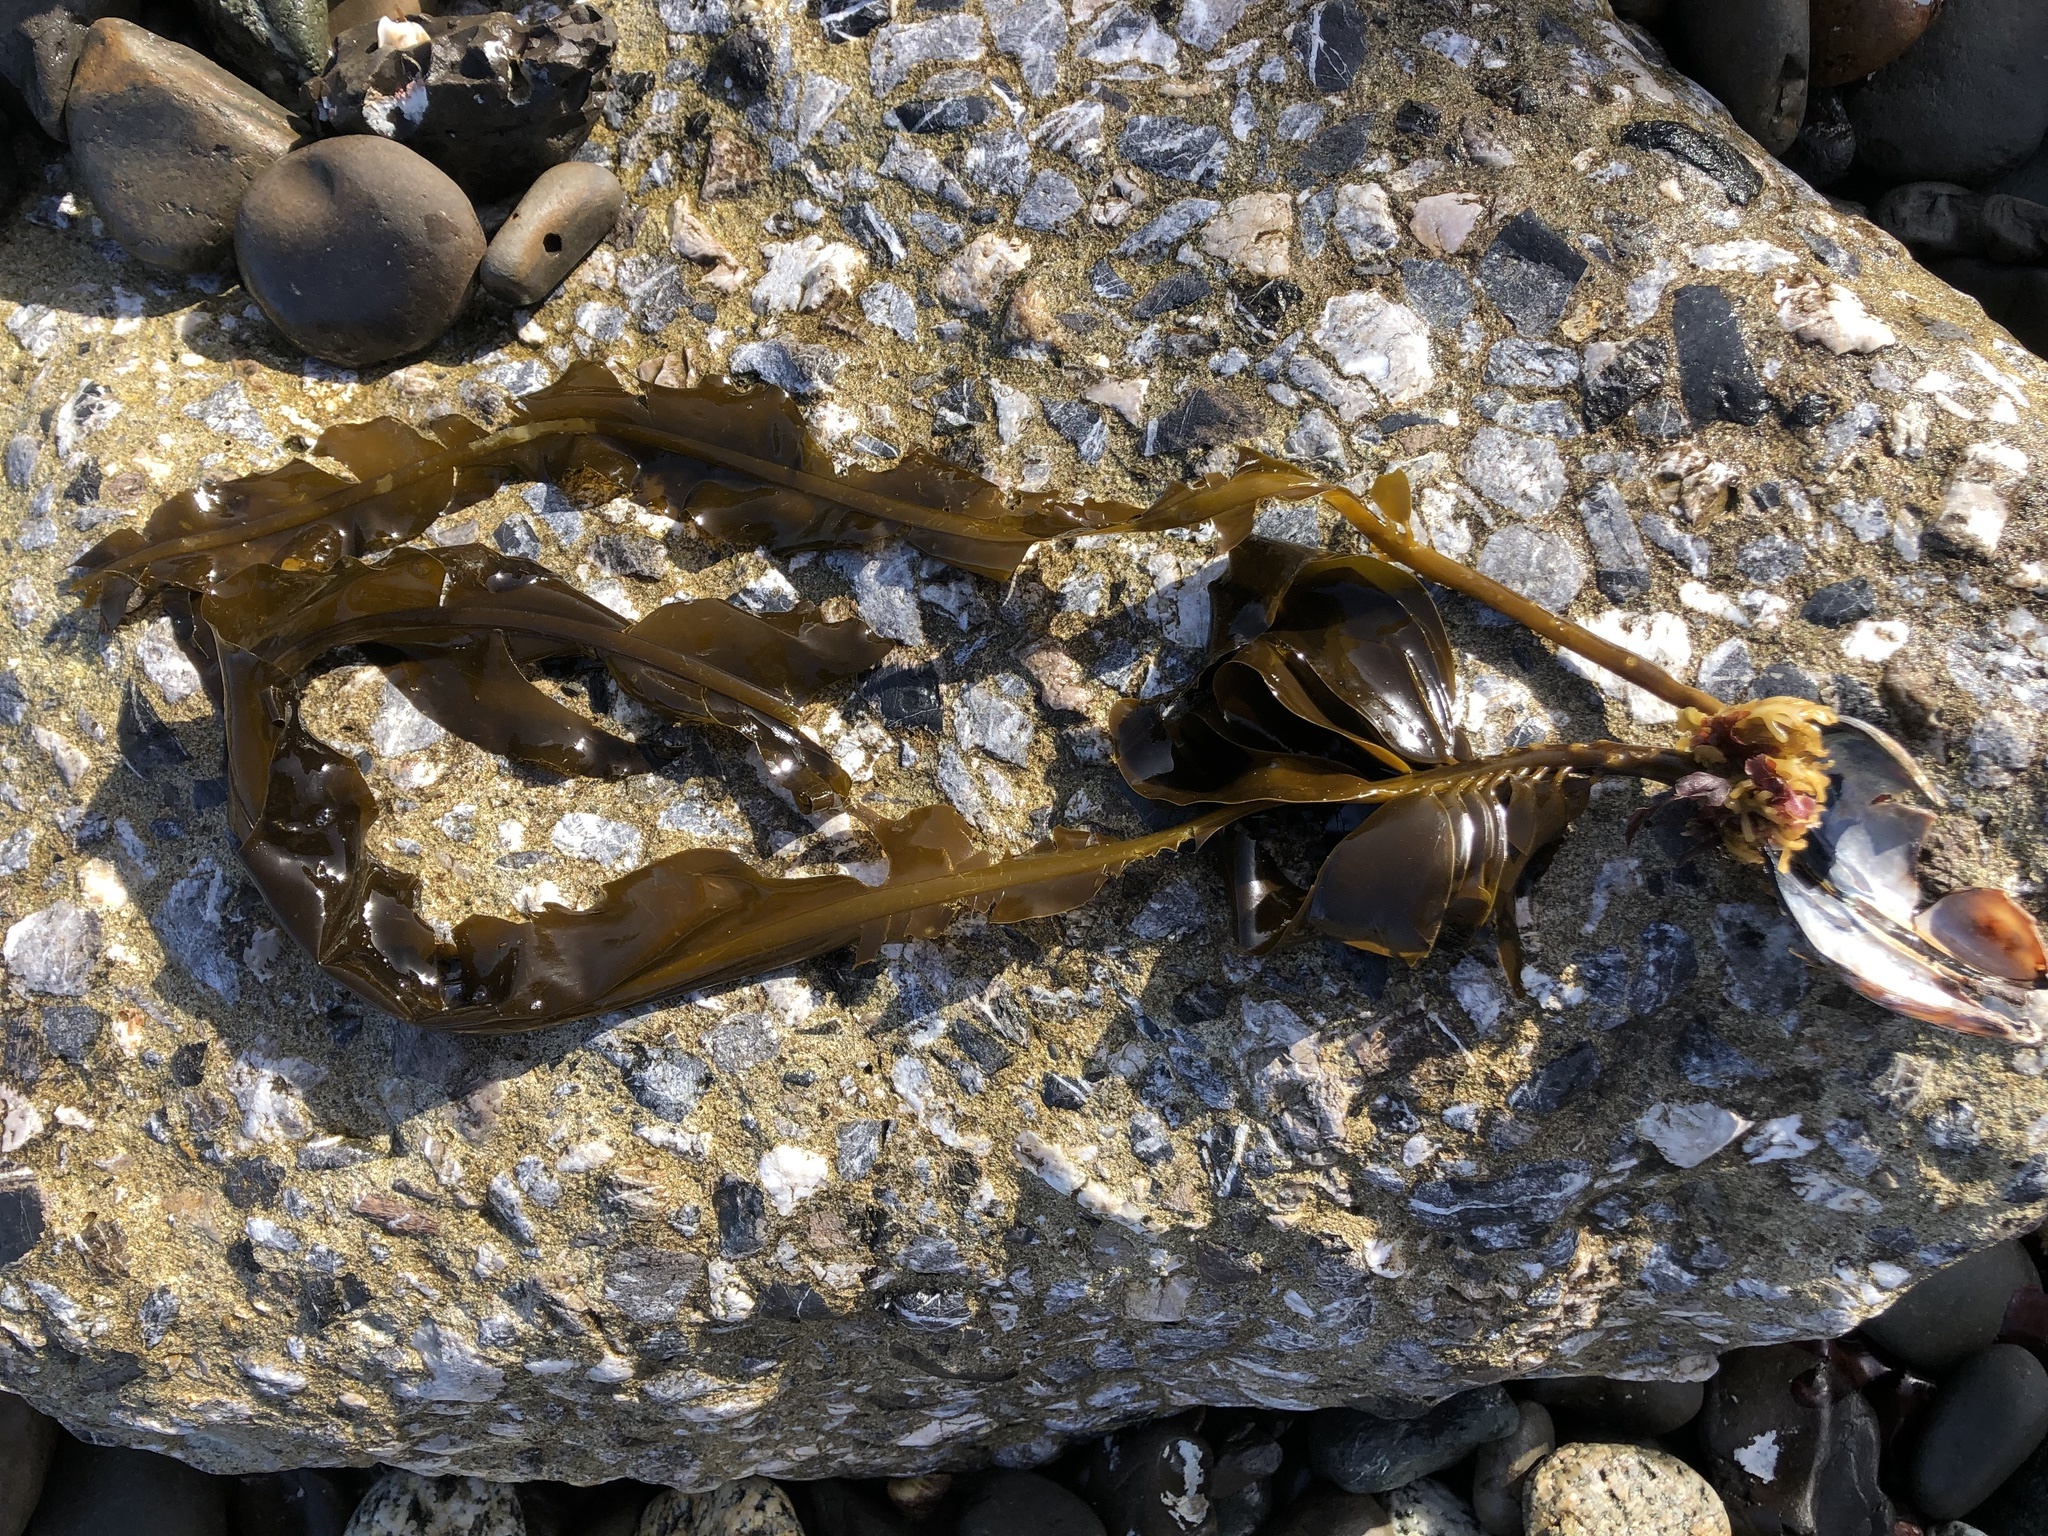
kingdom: Chromista
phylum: Ochrophyta
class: Phaeophyceae
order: Laminariales
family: Alariaceae
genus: Alaria
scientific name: Alaria marginata
